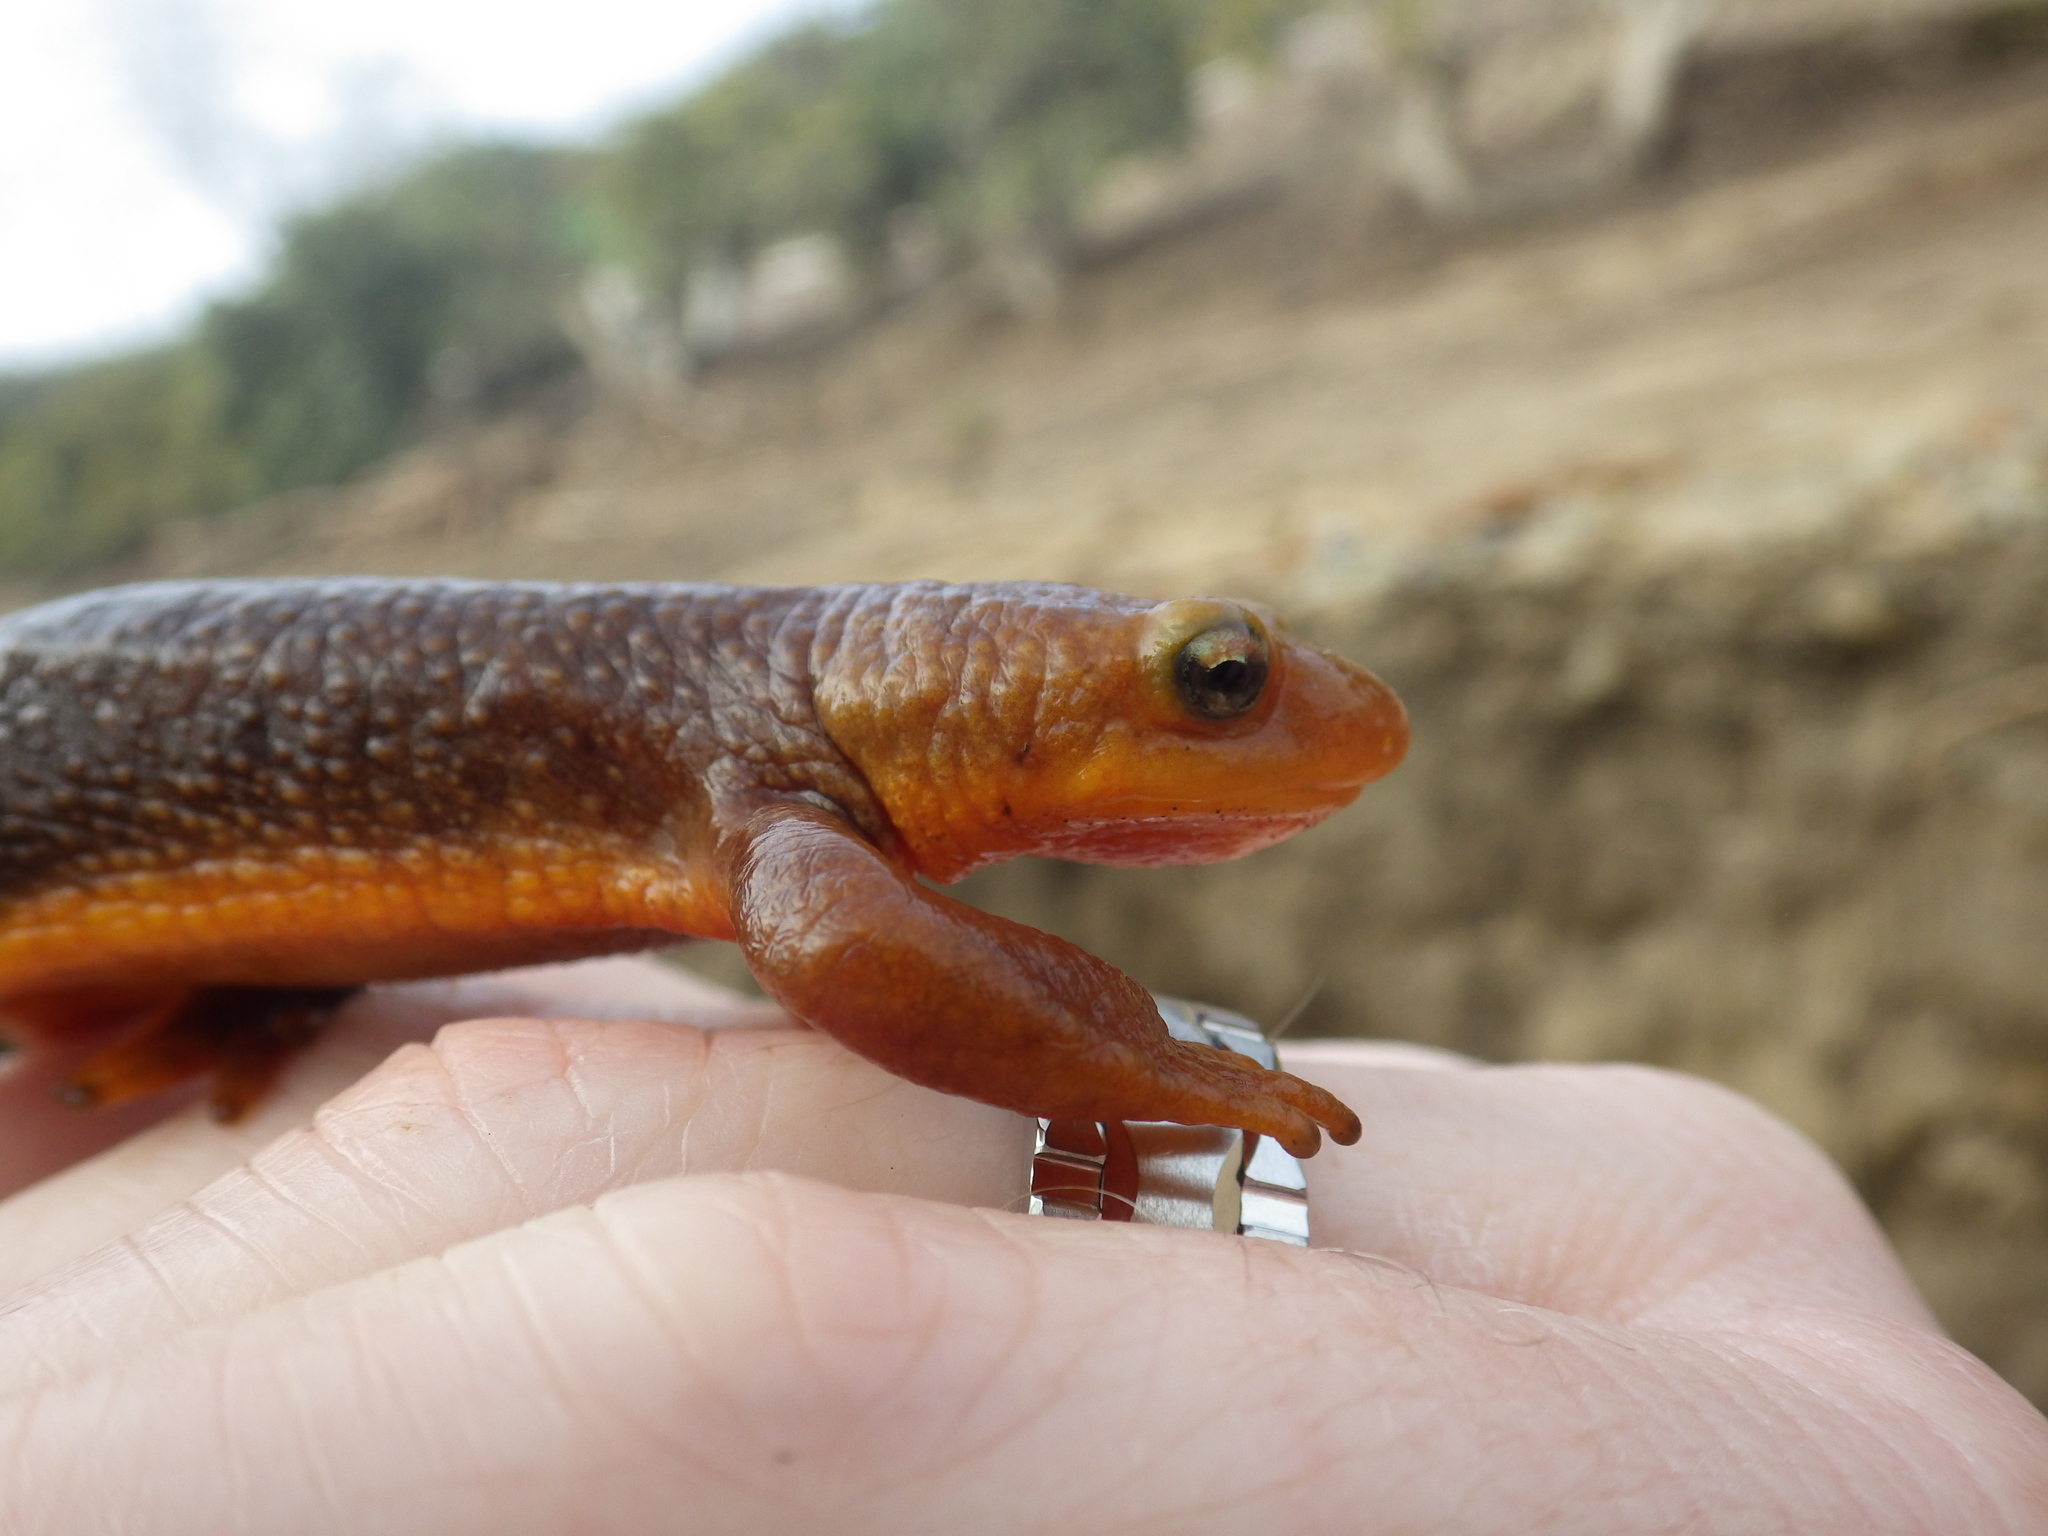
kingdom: Animalia
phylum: Chordata
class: Amphibia
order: Caudata
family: Salamandridae
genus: Taricha
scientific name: Taricha torosa
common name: California newt
